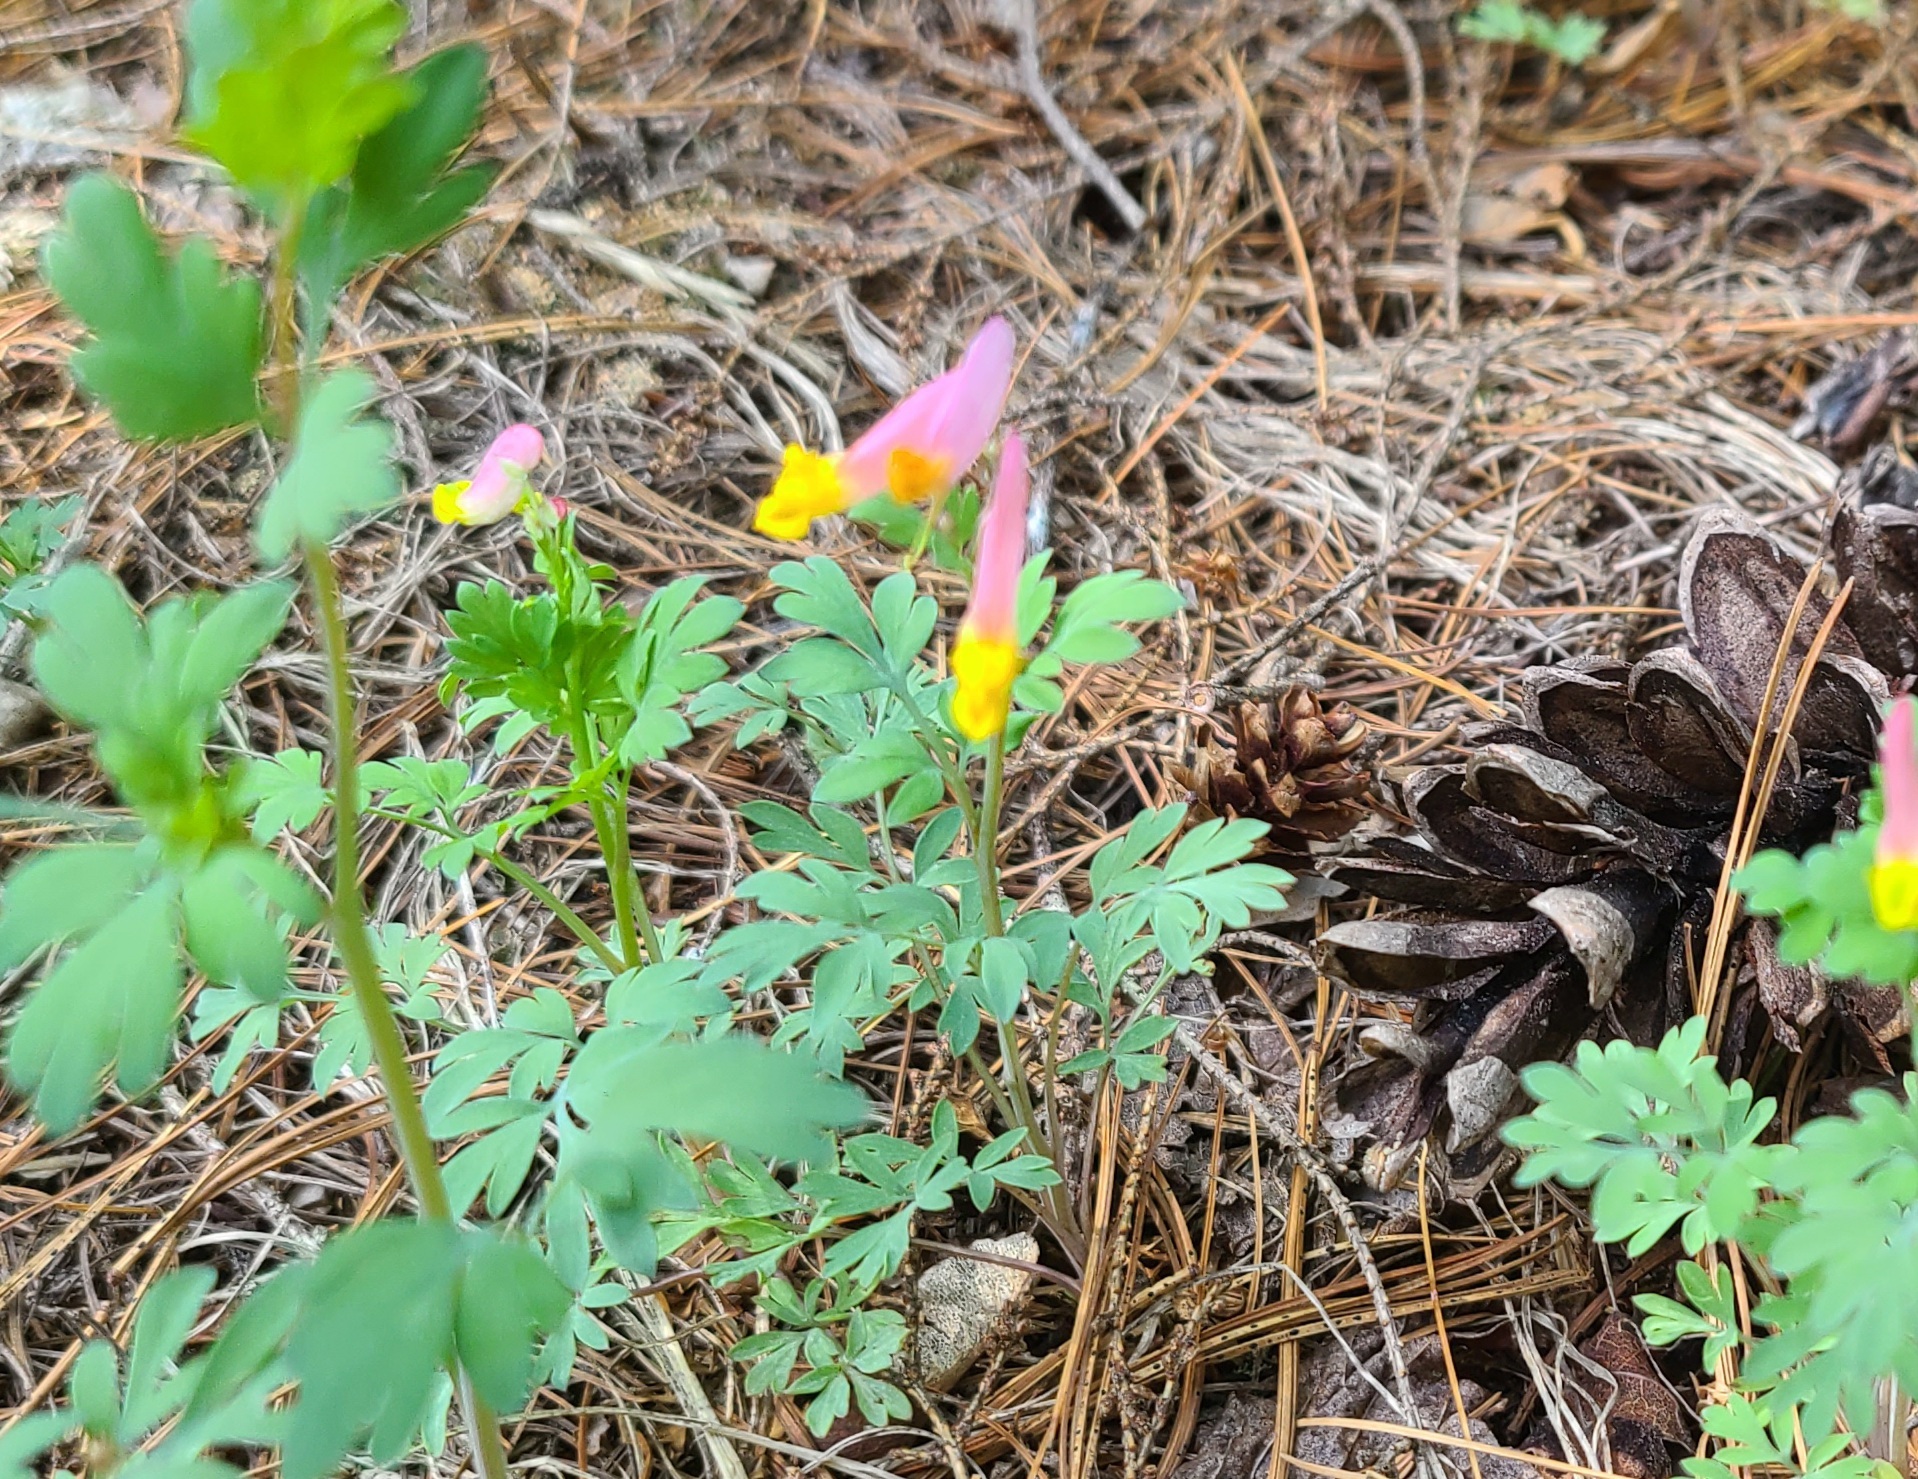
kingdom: Plantae
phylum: Tracheophyta
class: Magnoliopsida
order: Ranunculales
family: Papaveraceae
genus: Capnoides
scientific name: Capnoides sempervirens
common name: Rock harlequin
